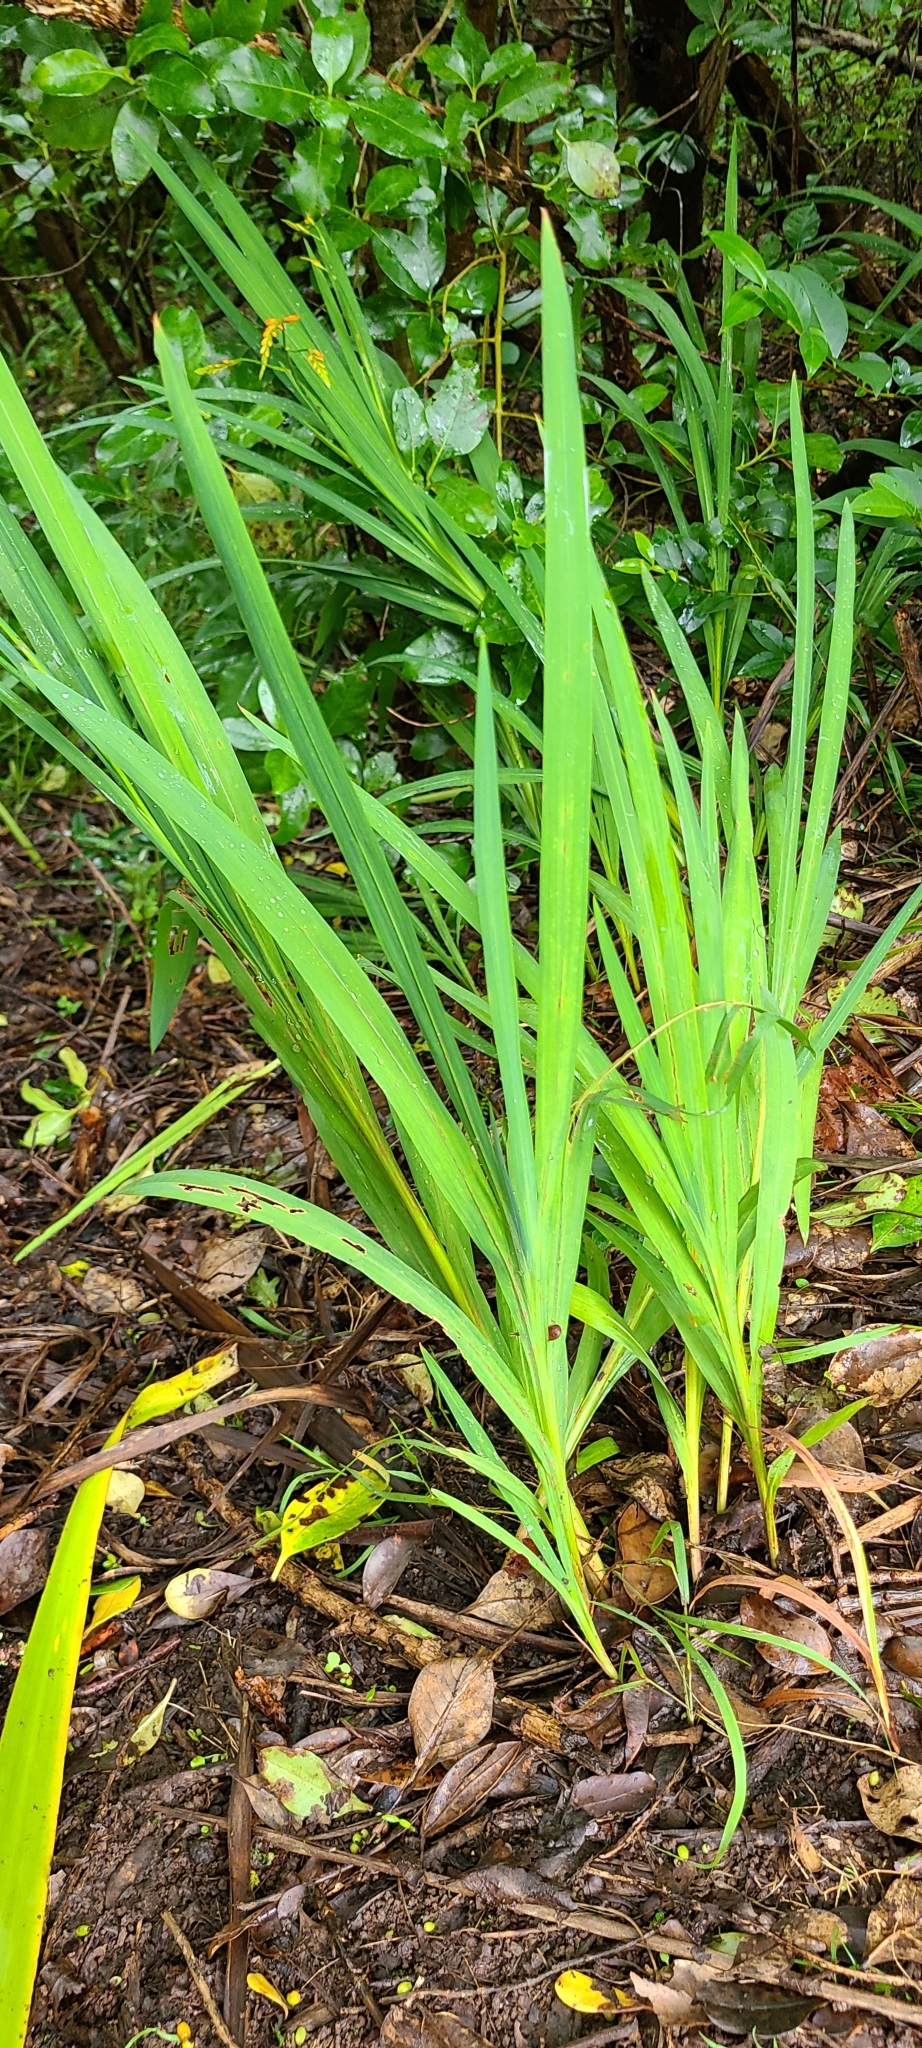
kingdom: Plantae
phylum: Tracheophyta
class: Liliopsida
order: Asparagales
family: Iridaceae
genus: Crocosmia
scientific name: Crocosmia crocosmiiflora
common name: Montbretia
